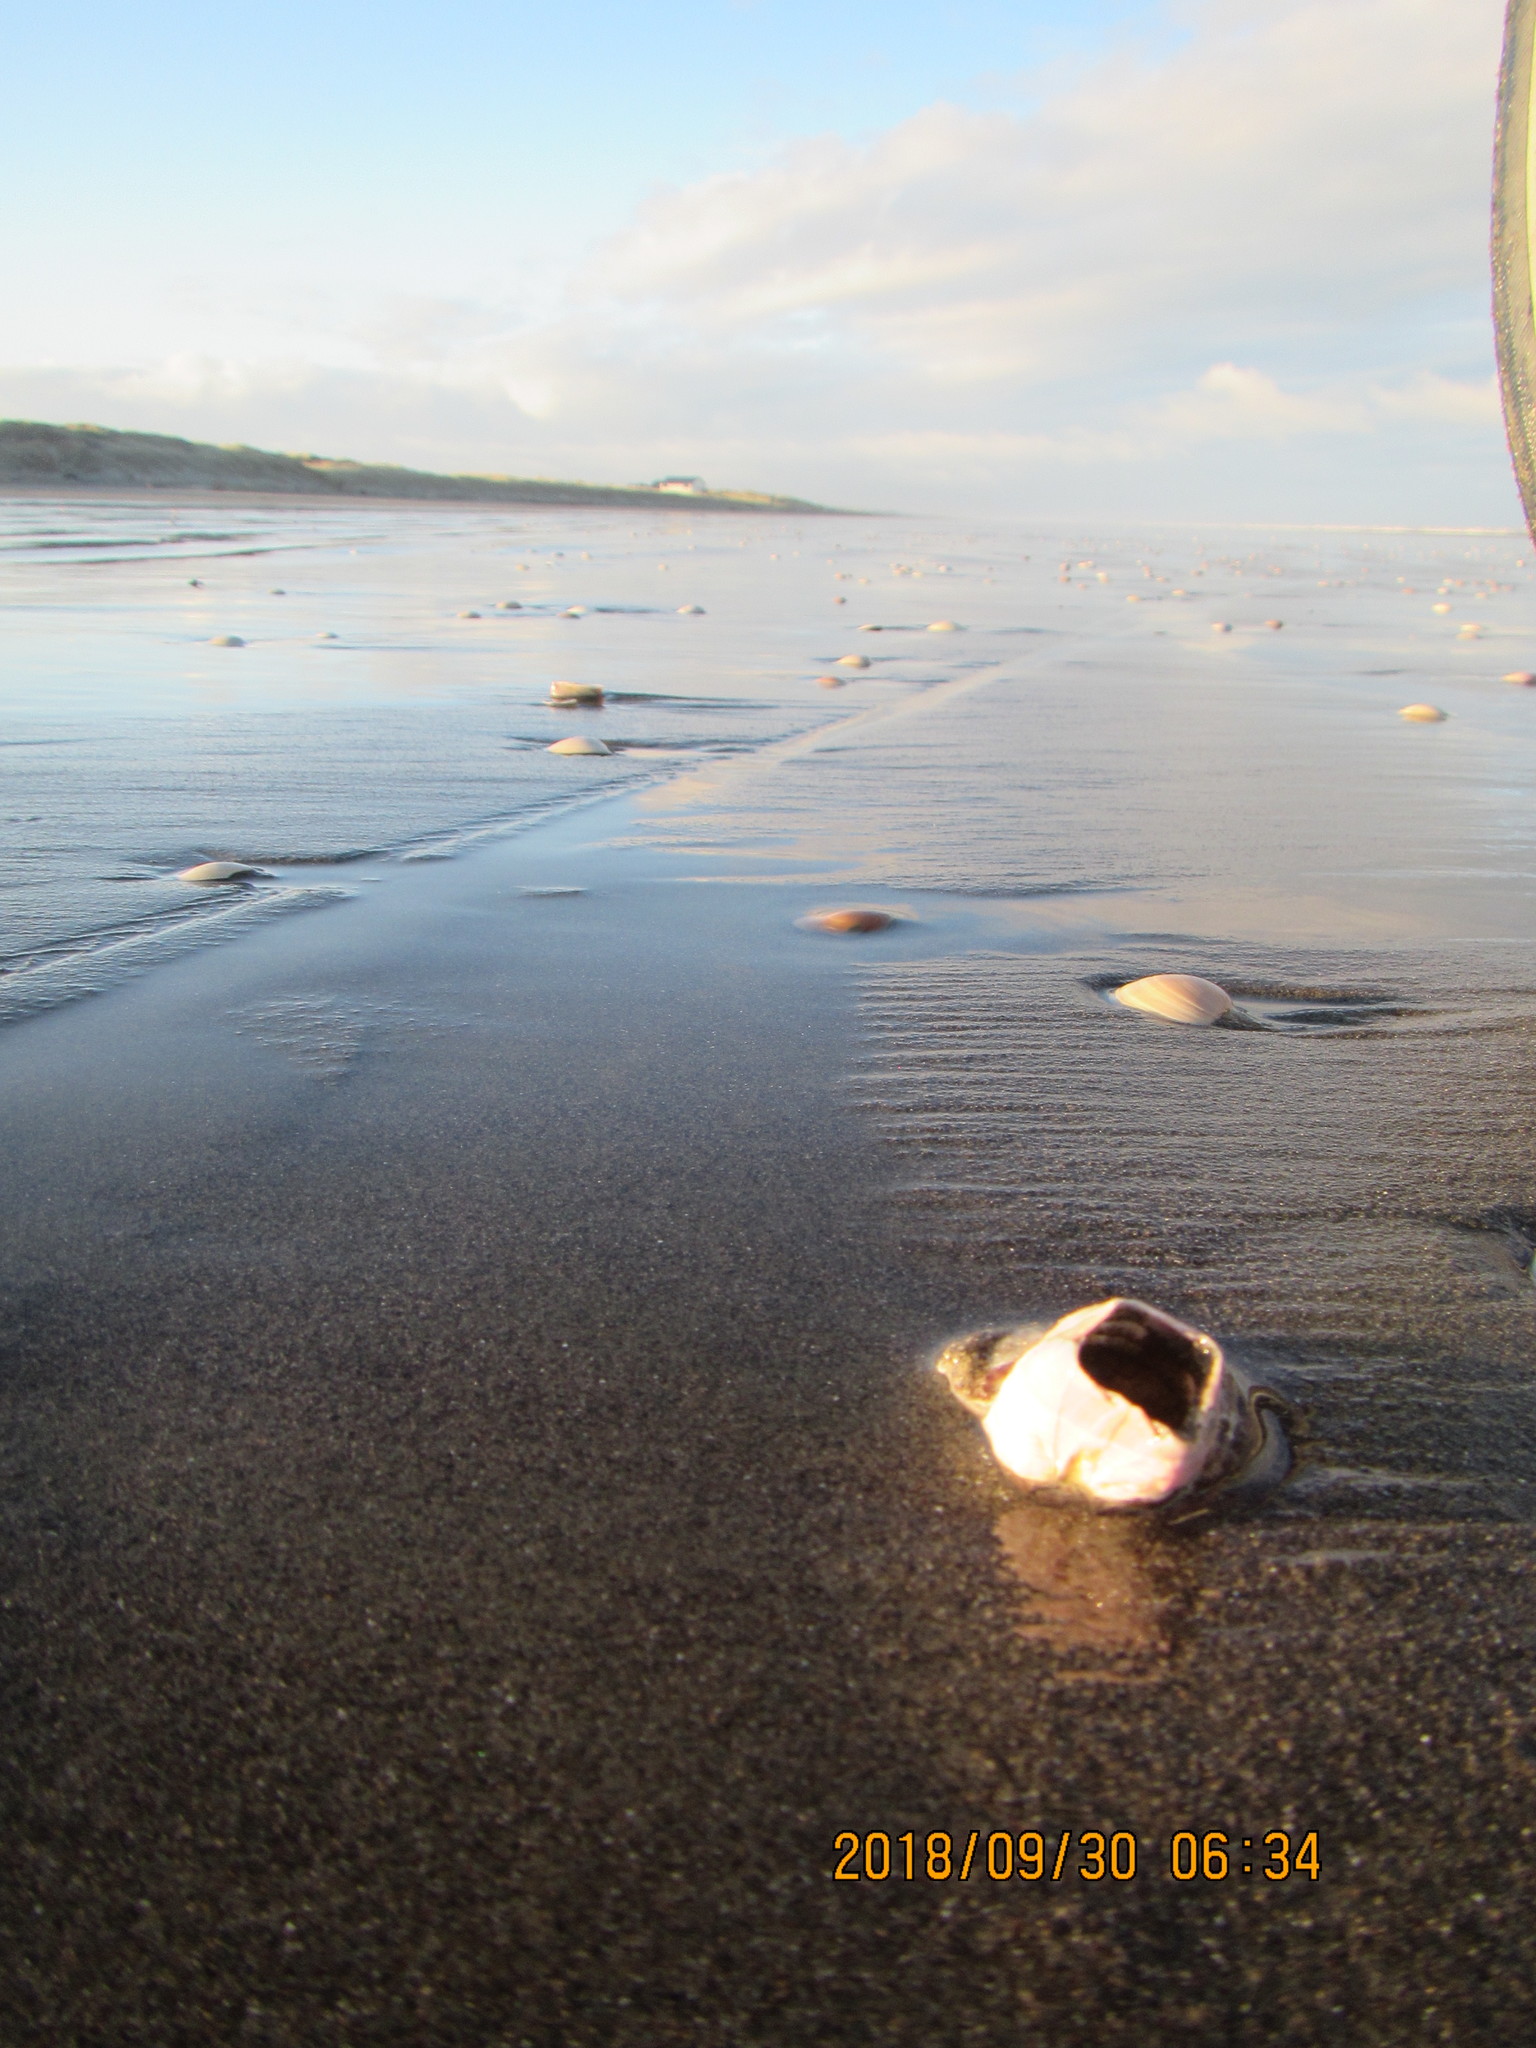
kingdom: Animalia
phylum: Arthropoda
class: Maxillopoda
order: Sessilia
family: Balanidae
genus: Notomegabalanus
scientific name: Notomegabalanus decorus
